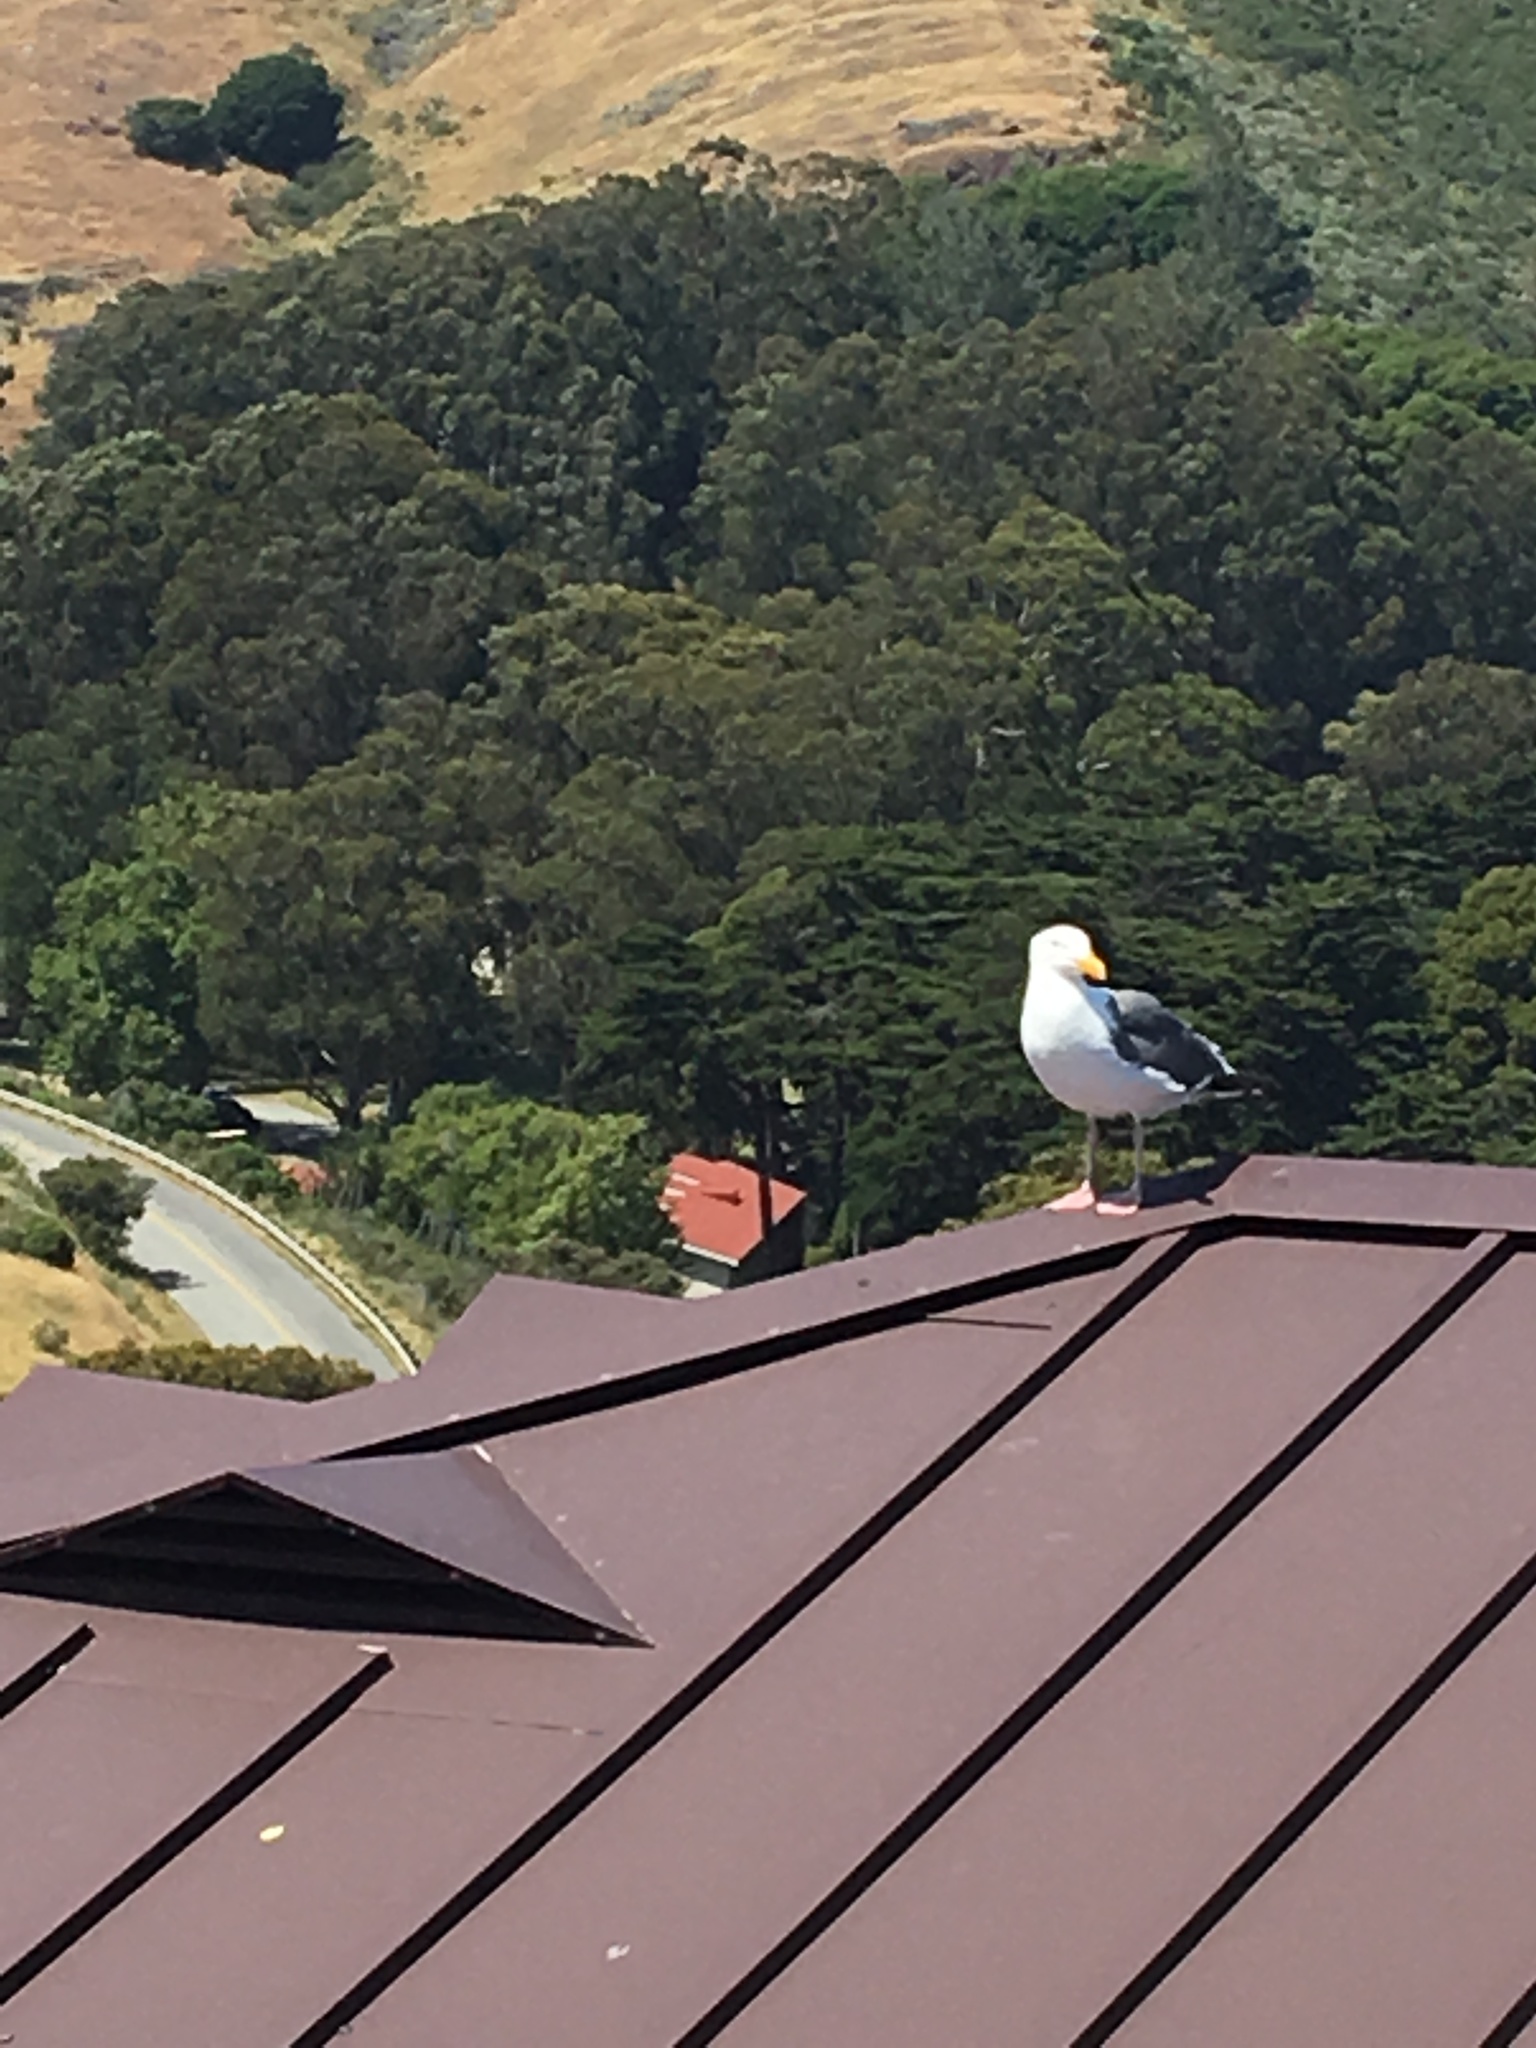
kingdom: Animalia
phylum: Chordata
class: Aves
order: Charadriiformes
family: Laridae
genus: Larus
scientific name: Larus occidentalis
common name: Western gull
